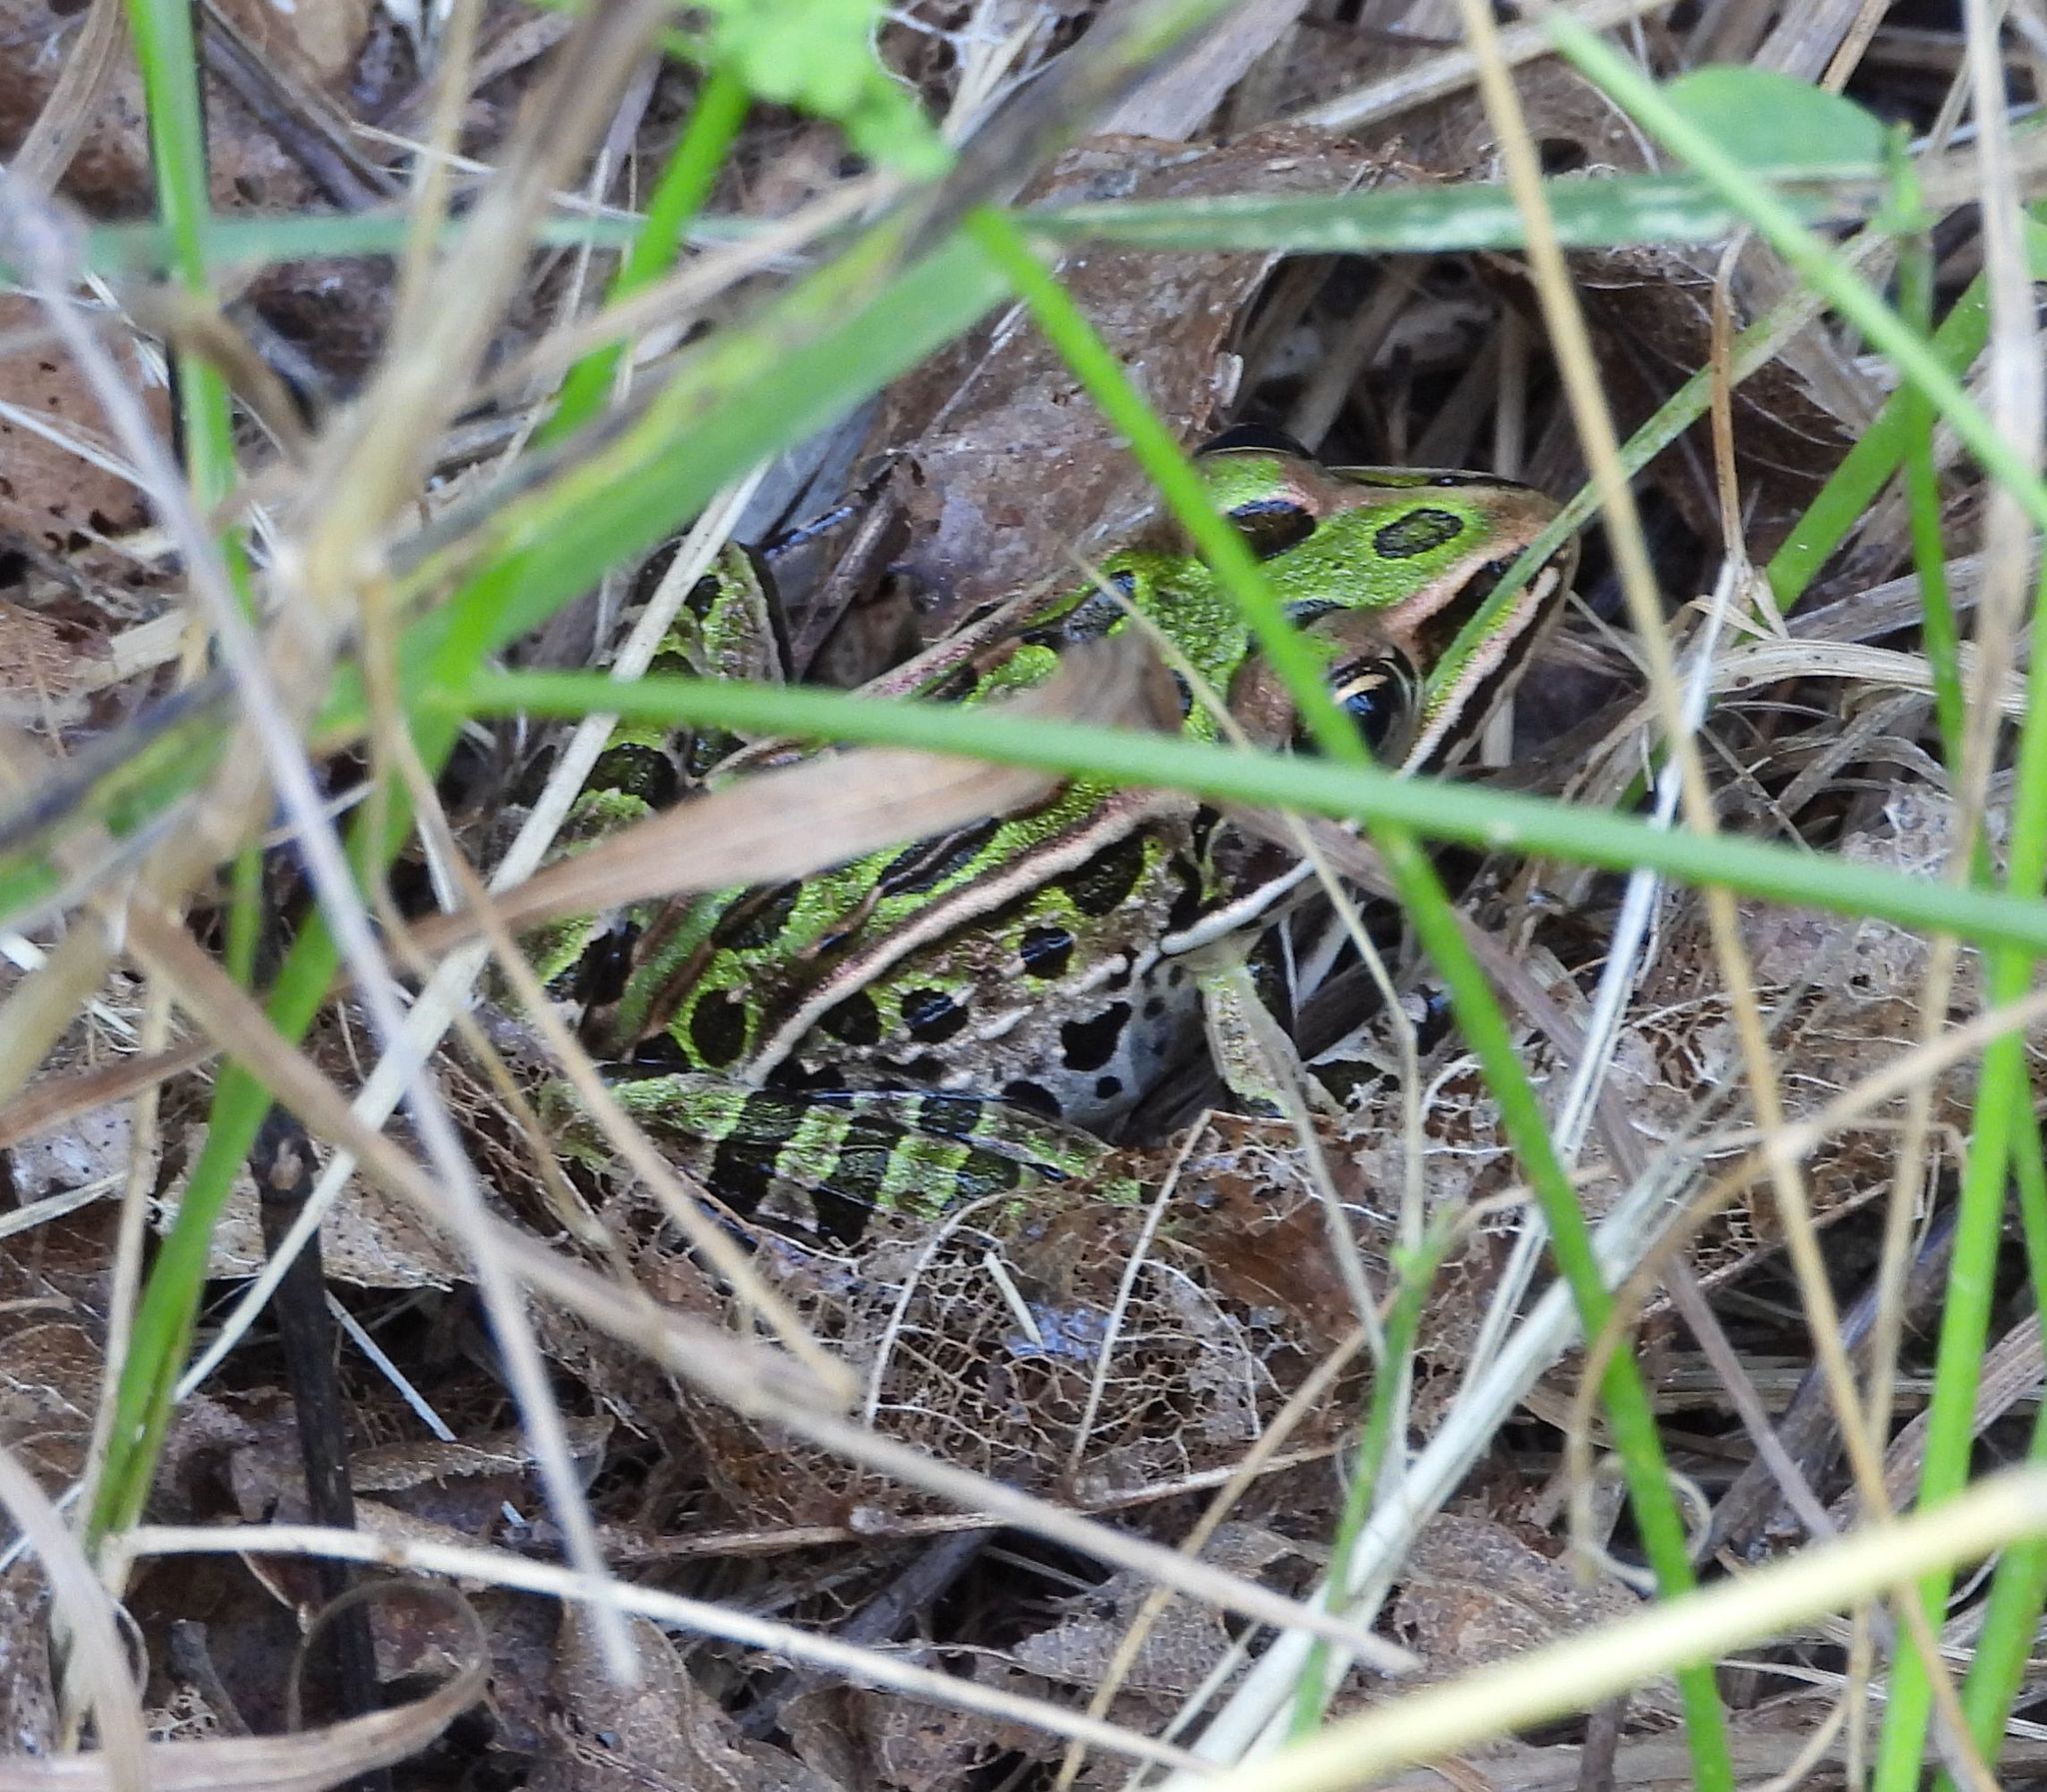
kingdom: Animalia
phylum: Chordata
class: Amphibia
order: Anura
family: Ranidae
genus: Lithobates
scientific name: Lithobates pipiens
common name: Northern leopard frog
